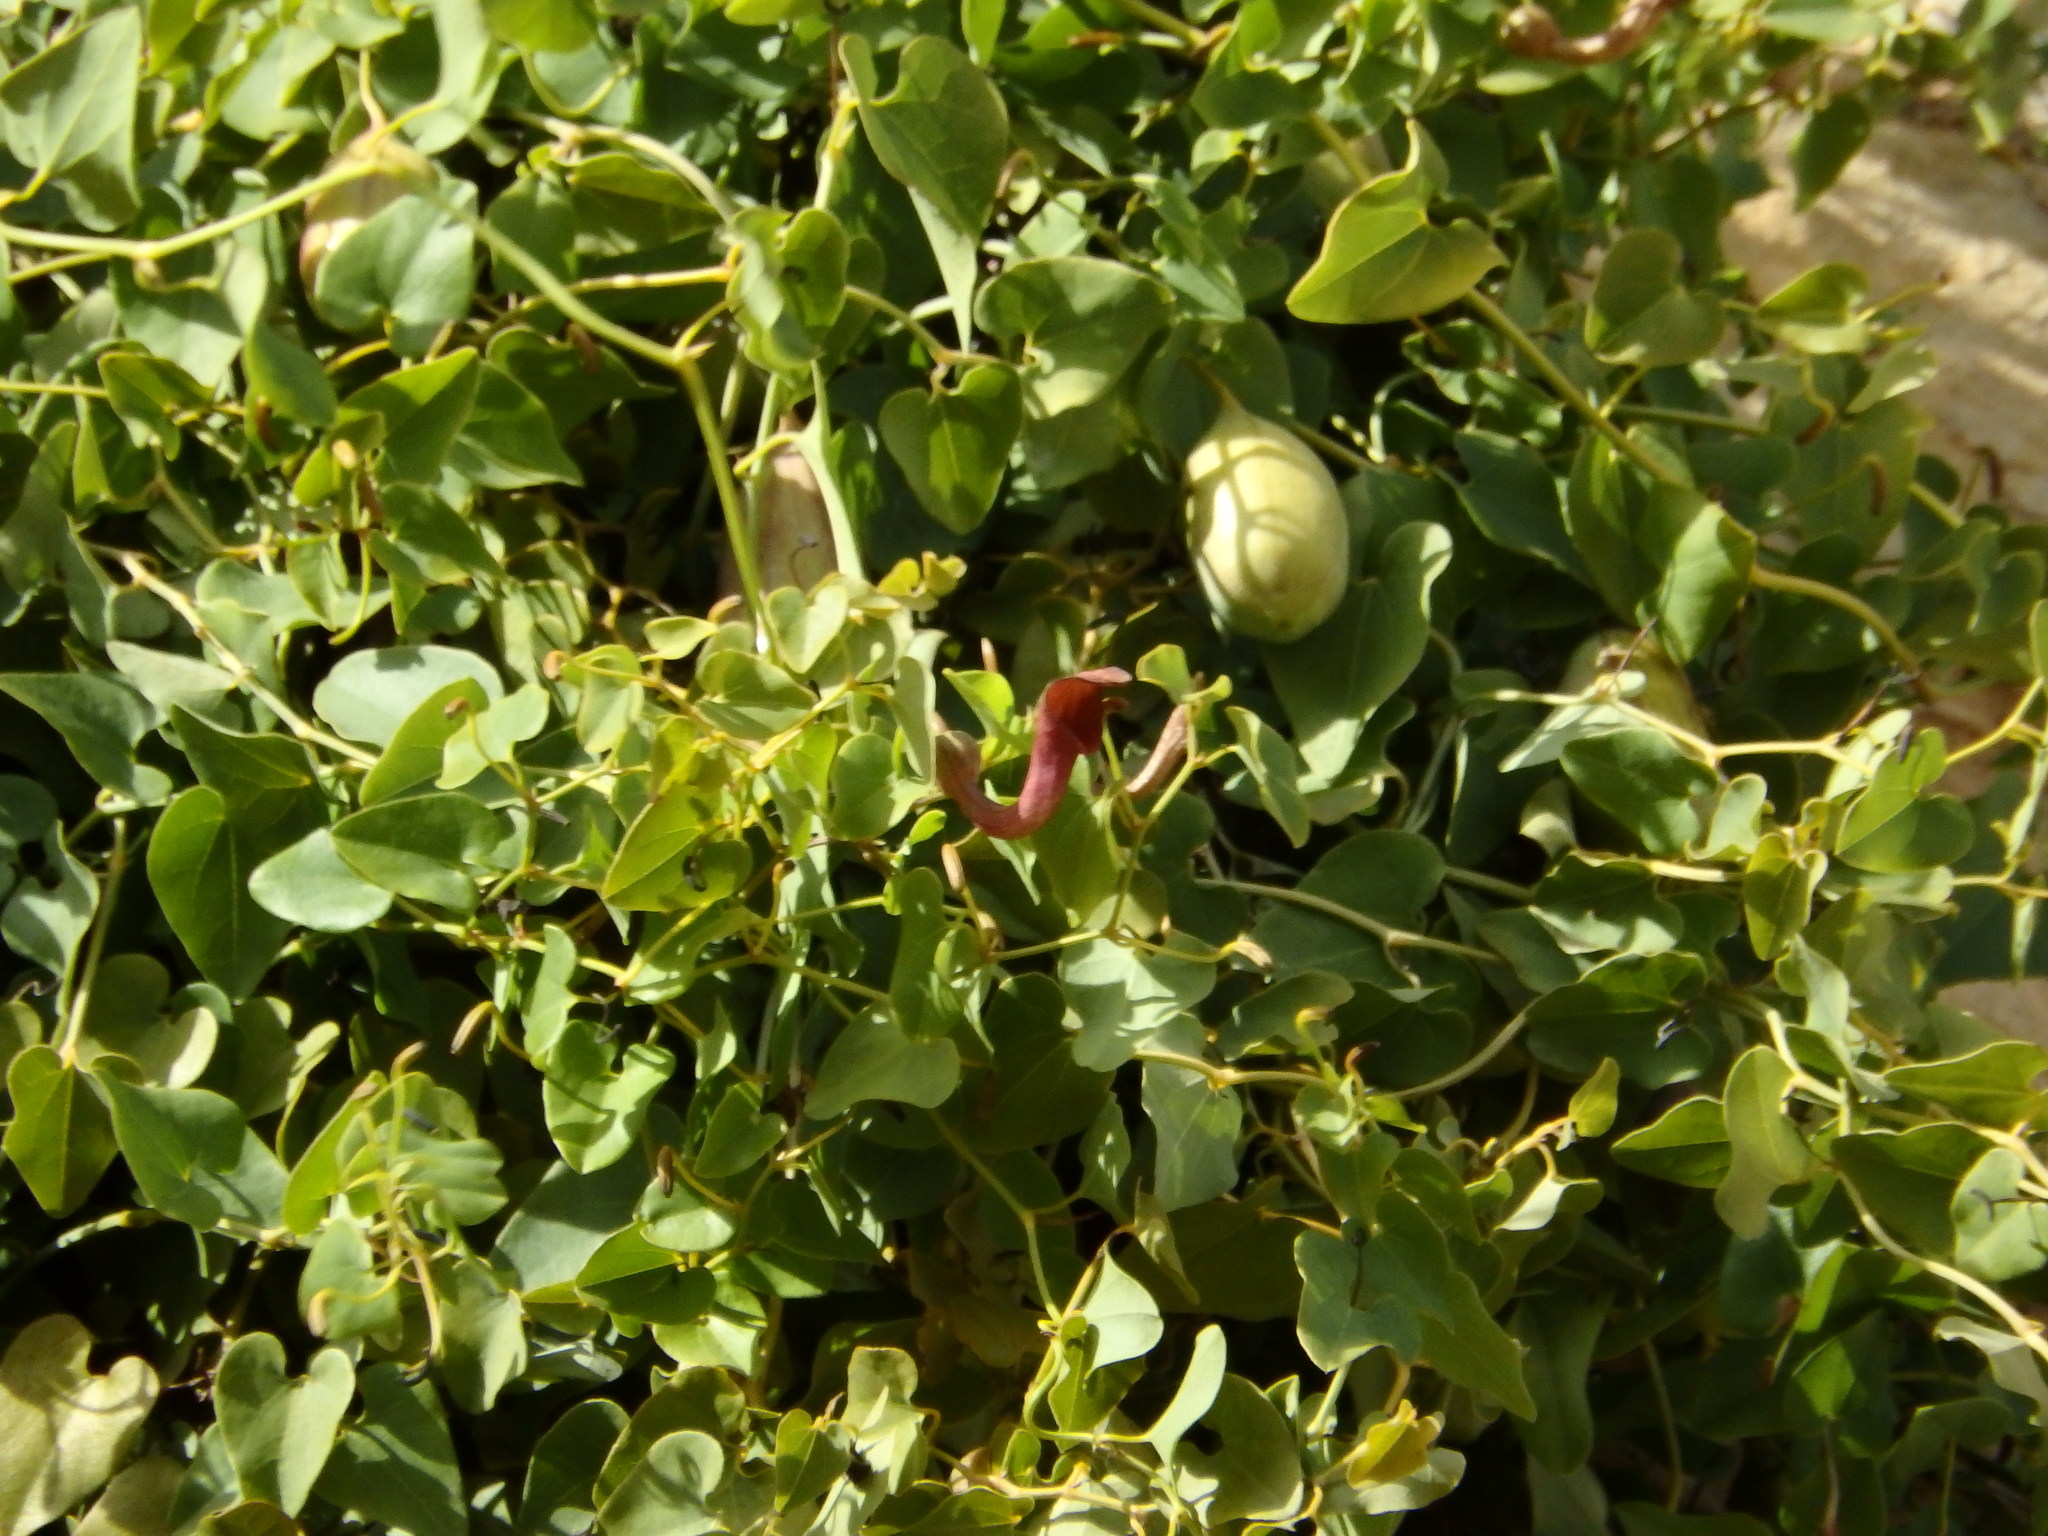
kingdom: Plantae
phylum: Tracheophyta
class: Magnoliopsida
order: Piperales
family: Aristolochiaceae
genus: Aristolochia
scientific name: Aristolochia baetica
